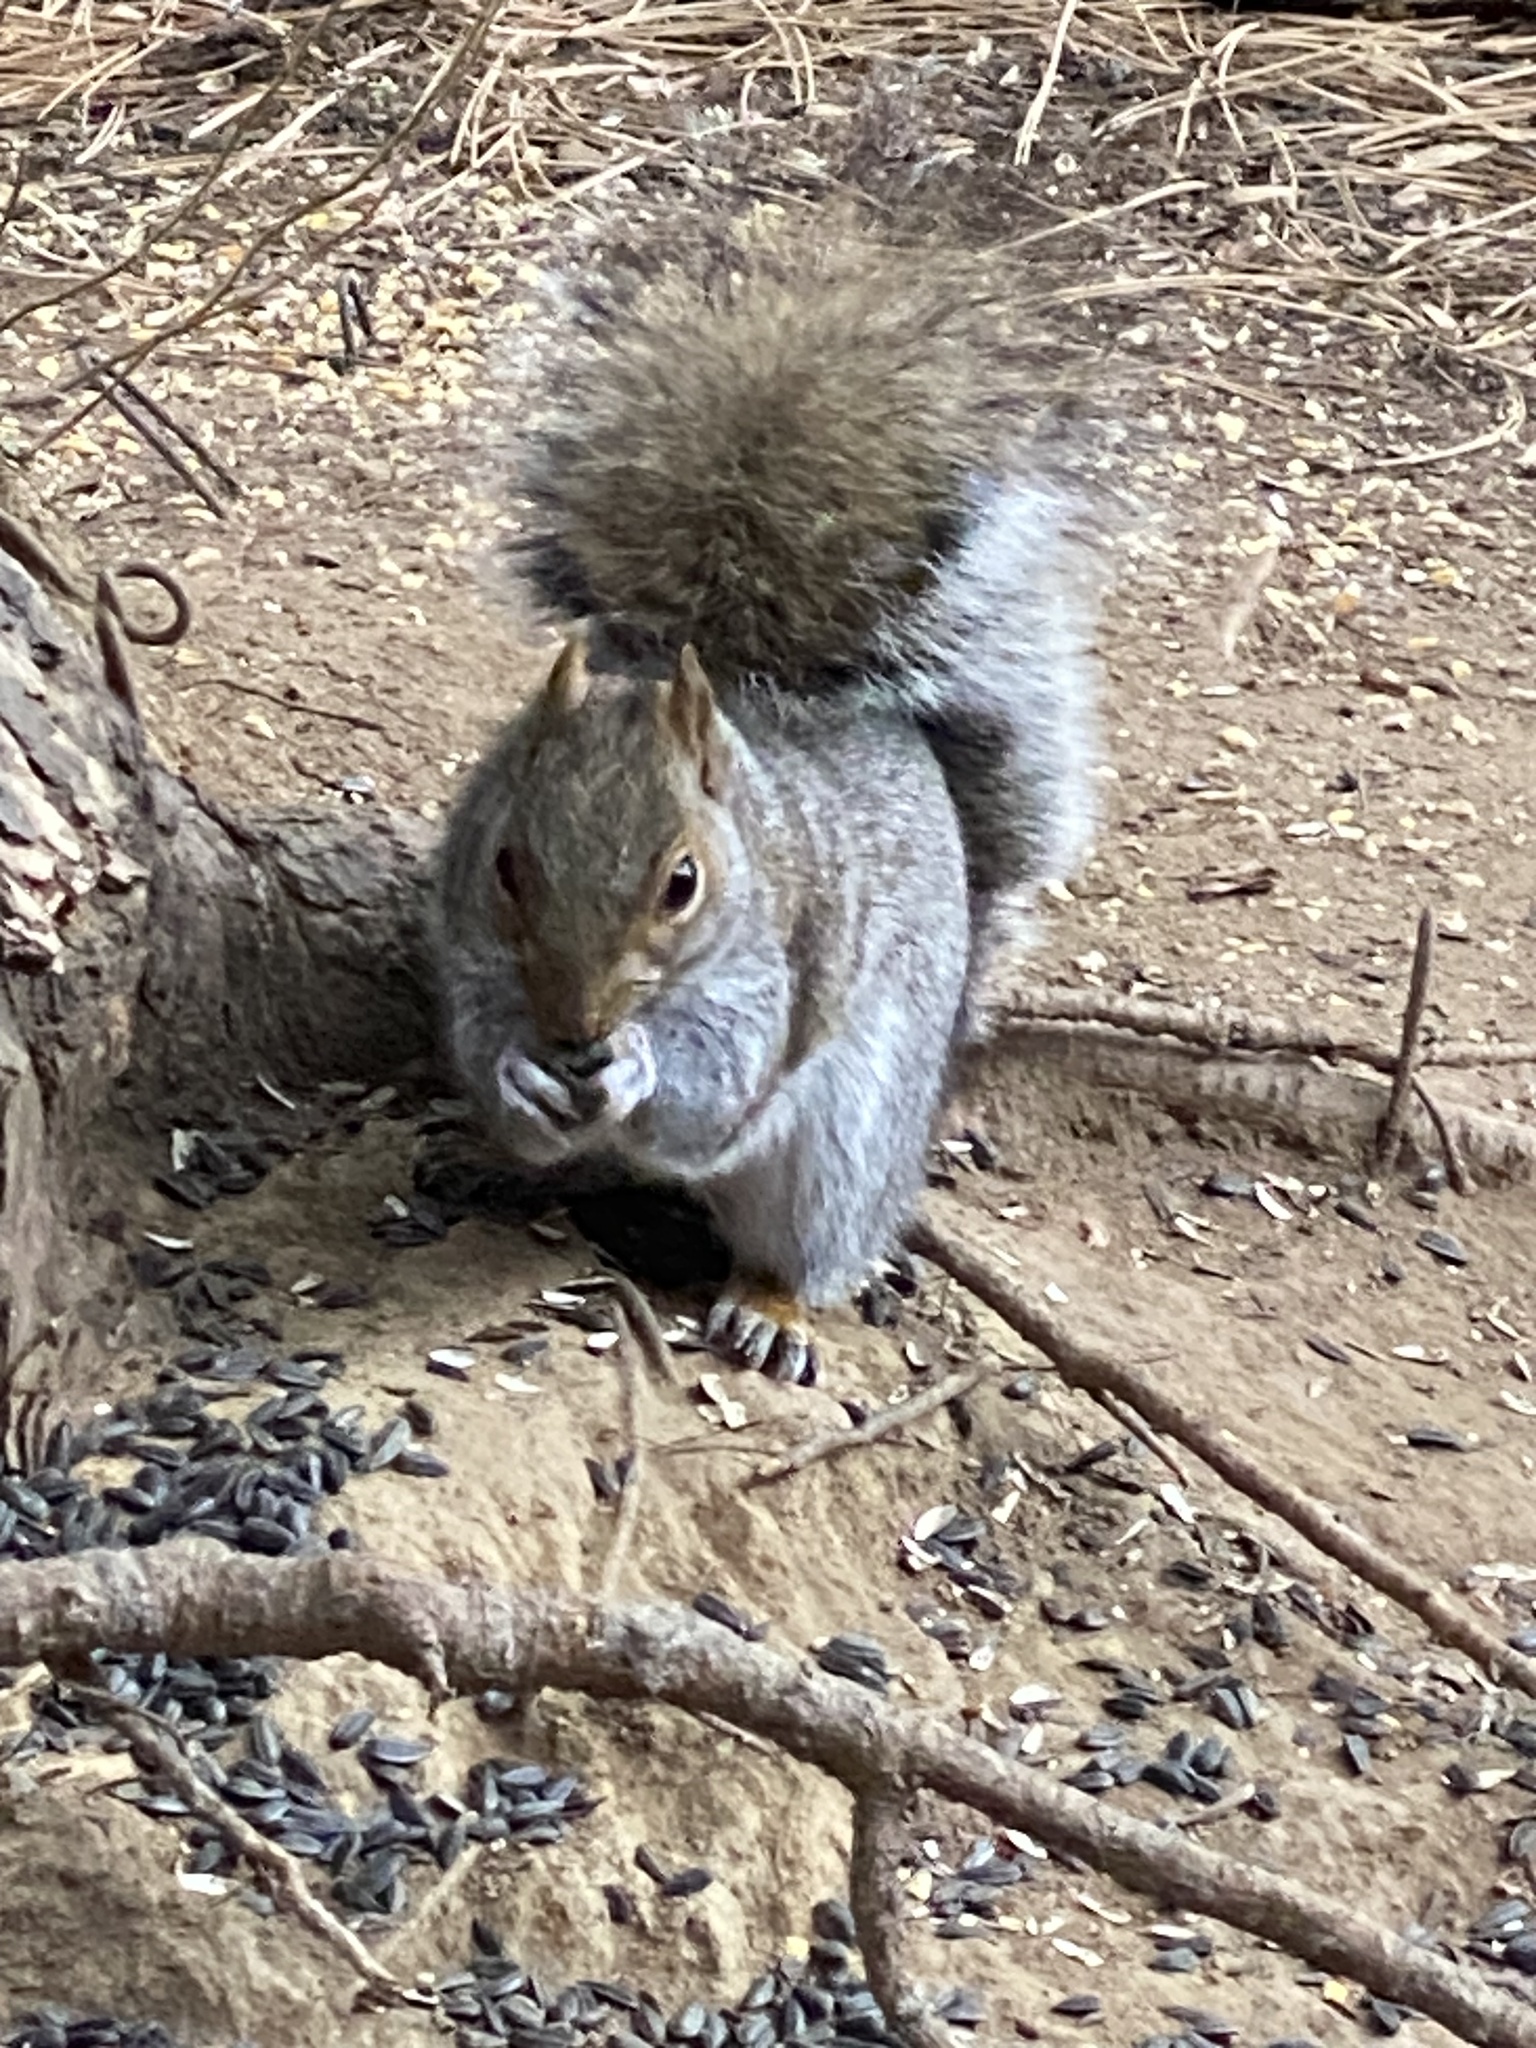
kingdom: Animalia
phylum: Chordata
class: Mammalia
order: Rodentia
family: Sciuridae
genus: Sciurus
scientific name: Sciurus carolinensis
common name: Eastern gray squirrel
